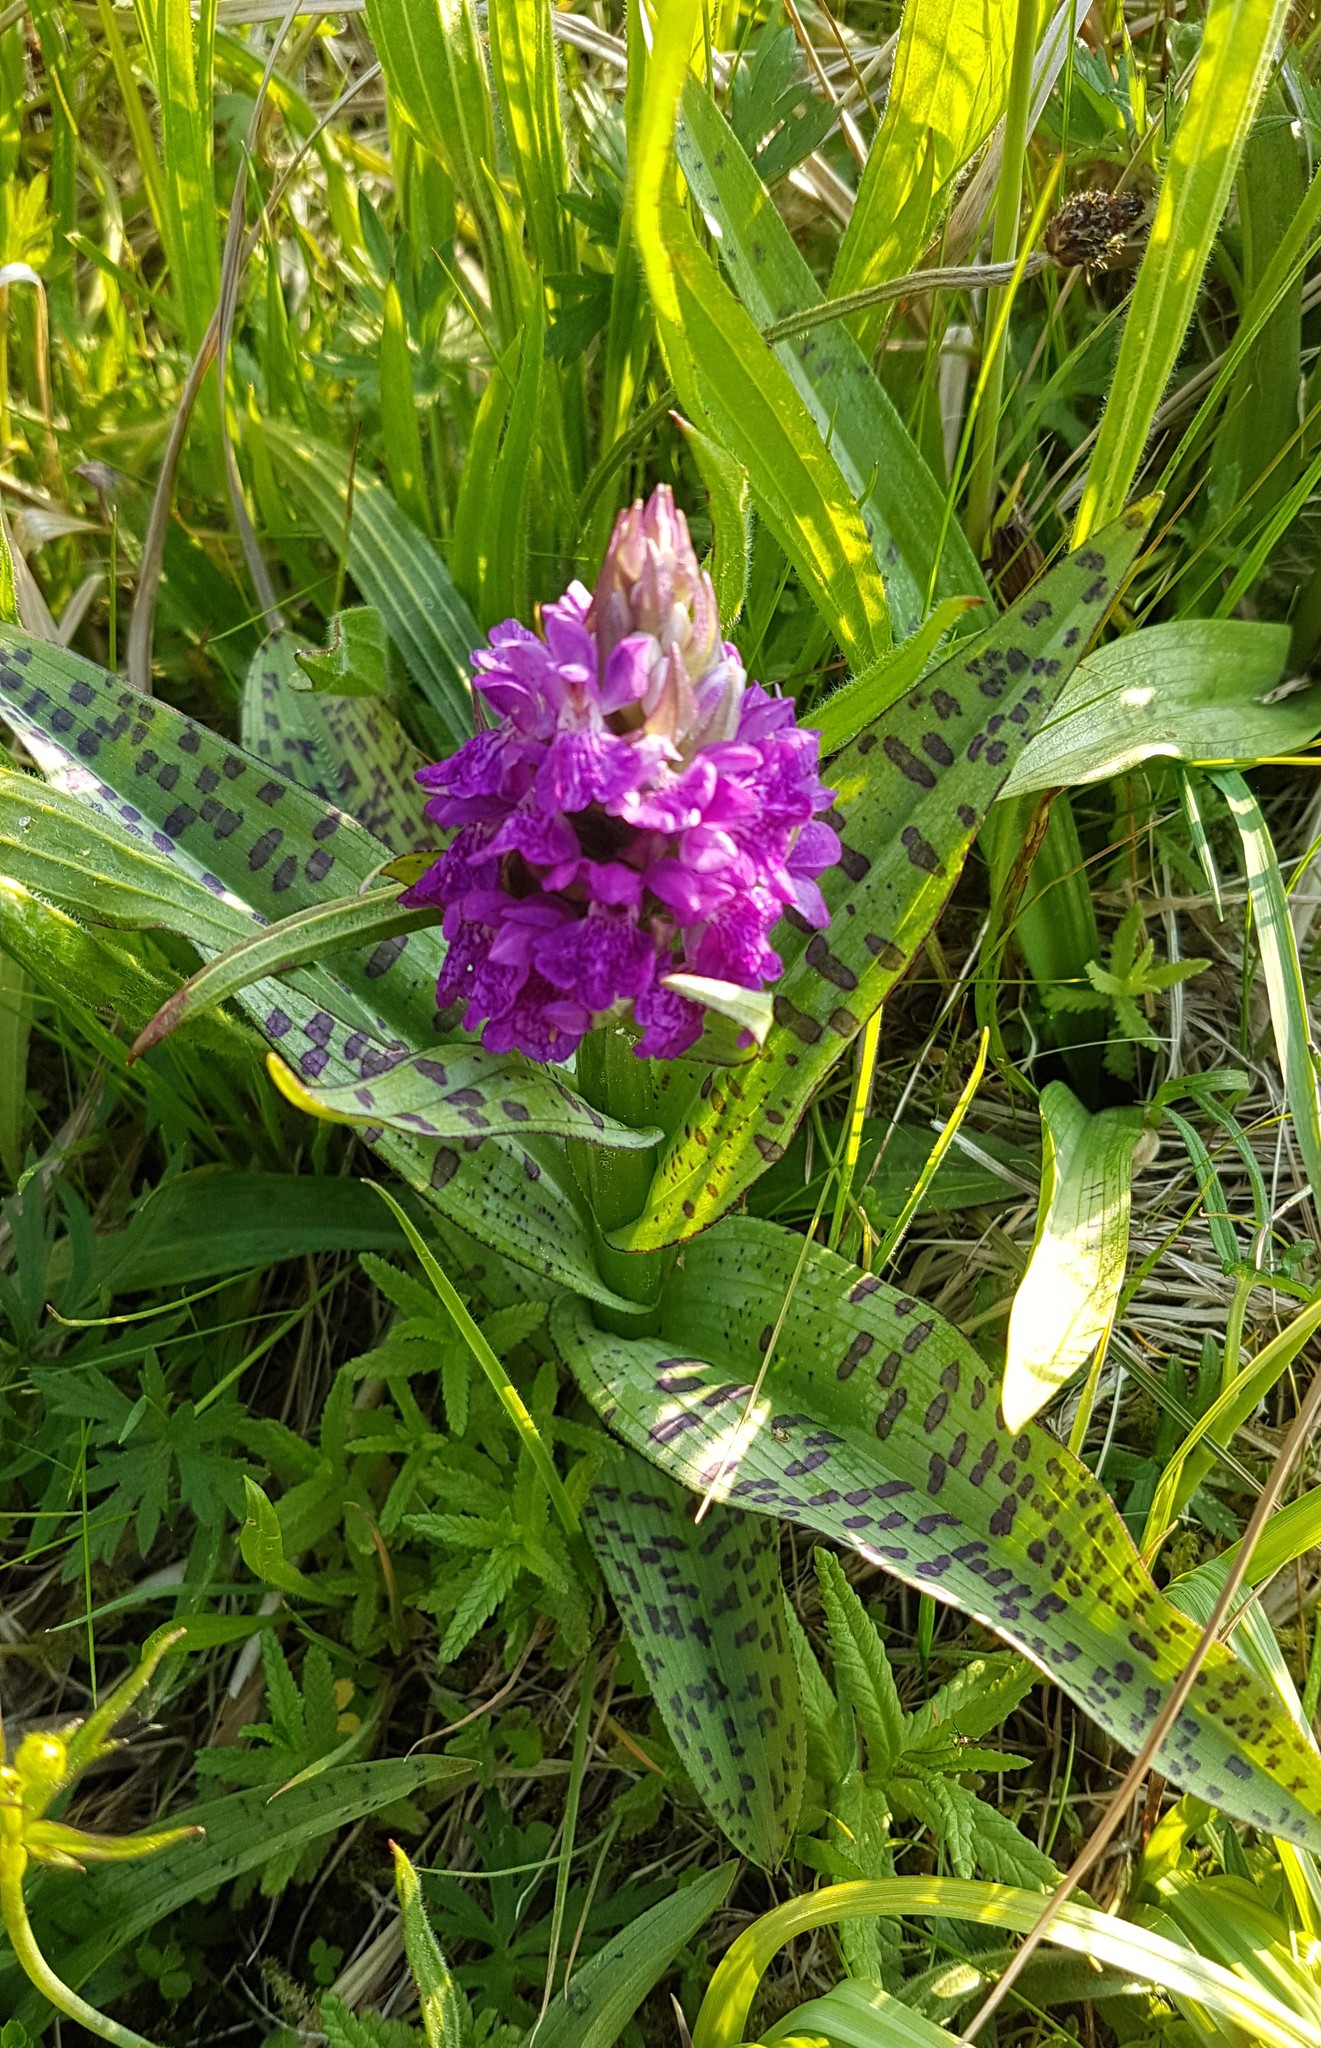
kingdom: Plantae
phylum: Tracheophyta
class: Liliopsida
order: Asparagales
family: Orchidaceae
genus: Dactylorhiza
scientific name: Dactylorhiza majalis
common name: Marsh orchid
